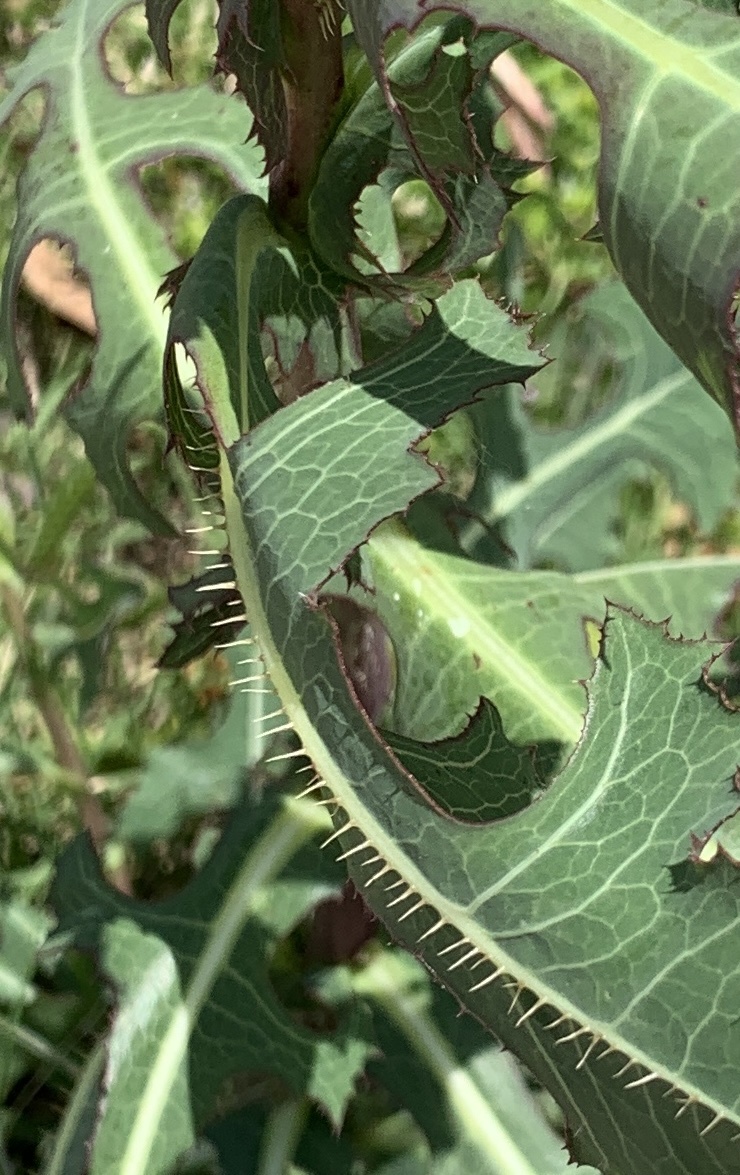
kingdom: Plantae
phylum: Tracheophyta
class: Magnoliopsida
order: Asterales
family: Asteraceae
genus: Lactuca
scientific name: Lactuca serriola
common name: Prickly lettuce
